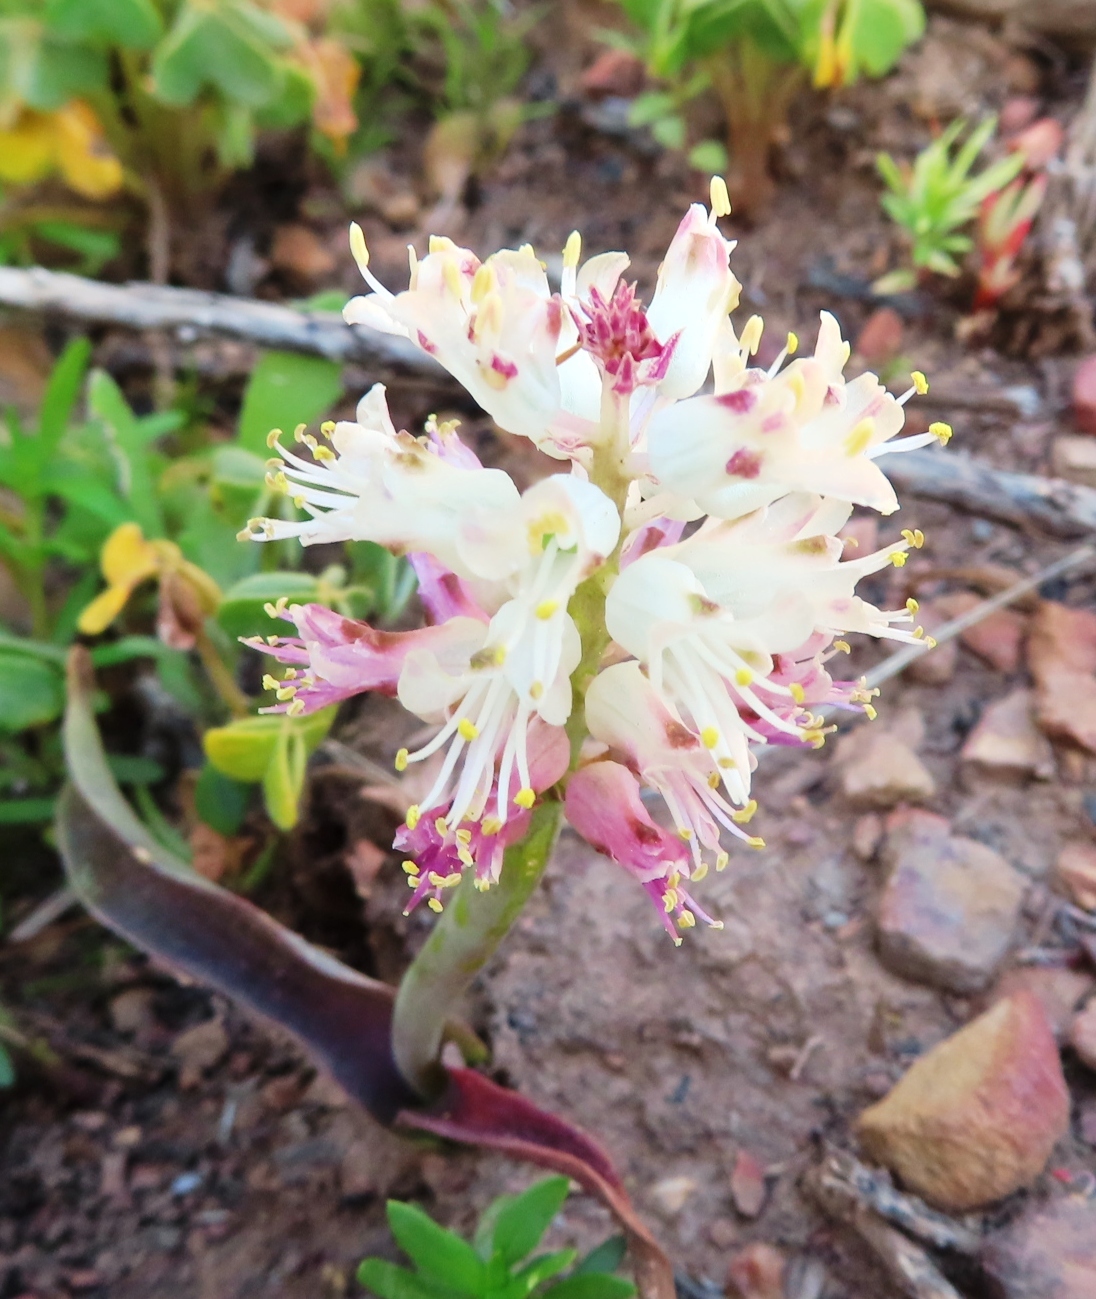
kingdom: Plantae
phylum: Tracheophyta
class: Liliopsida
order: Asparagales
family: Asparagaceae
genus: Lachenalia
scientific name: Lachenalia pallida
